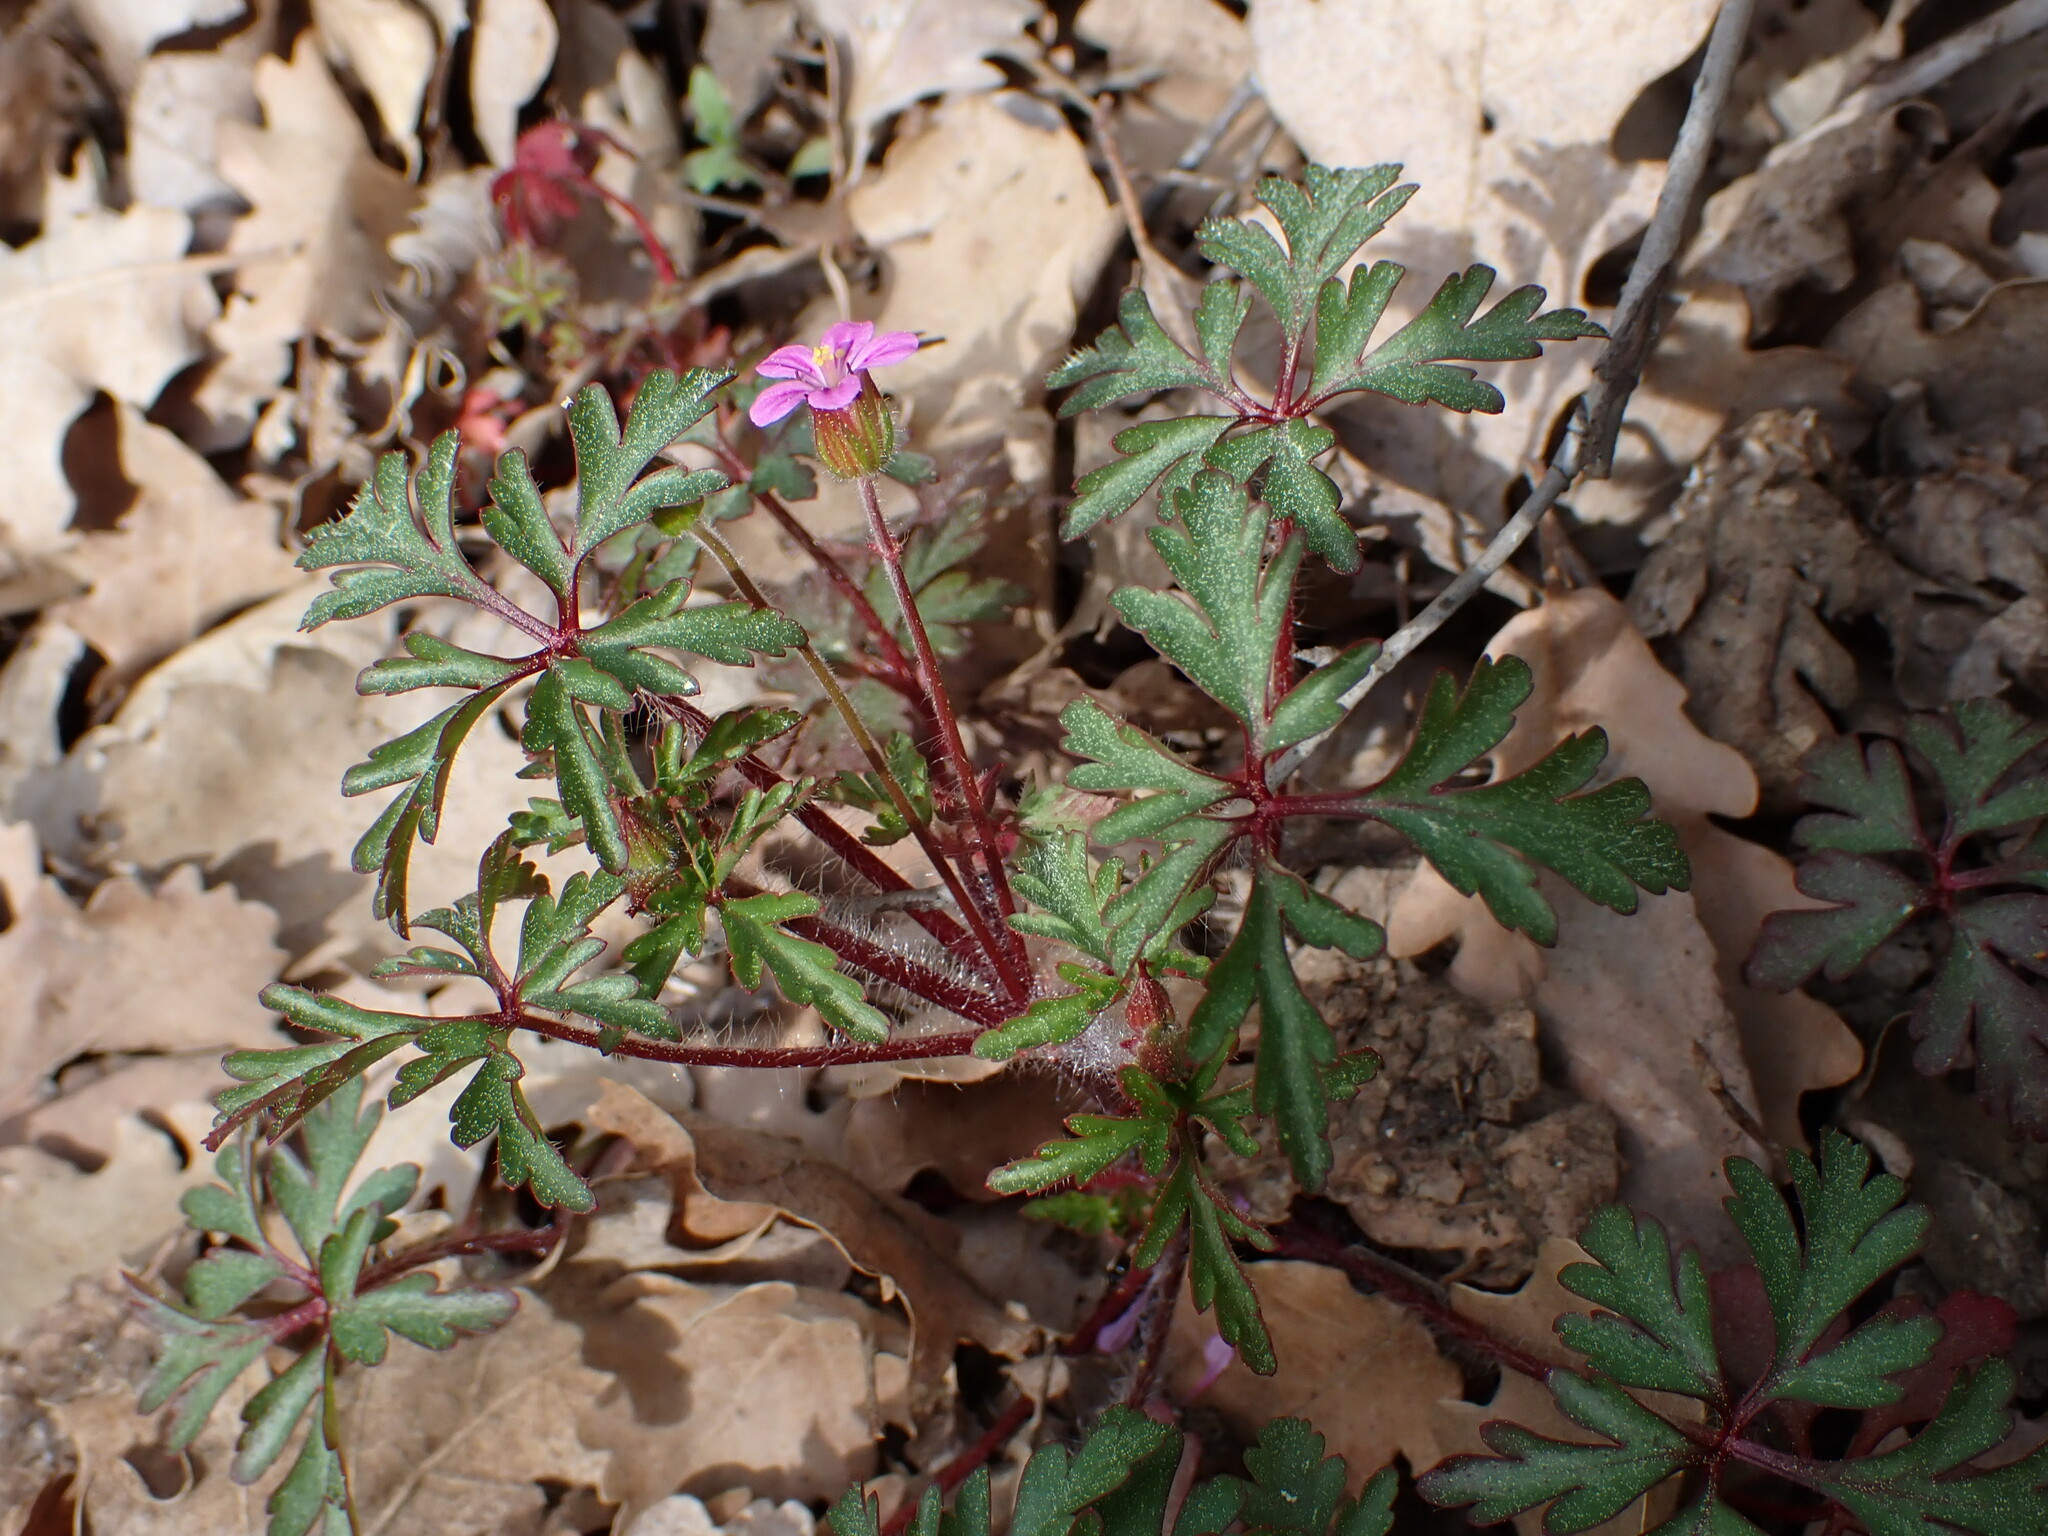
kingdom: Plantae
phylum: Tracheophyta
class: Magnoliopsida
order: Geraniales
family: Geraniaceae
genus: Geranium
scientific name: Geranium purpureum
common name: Little-robin
